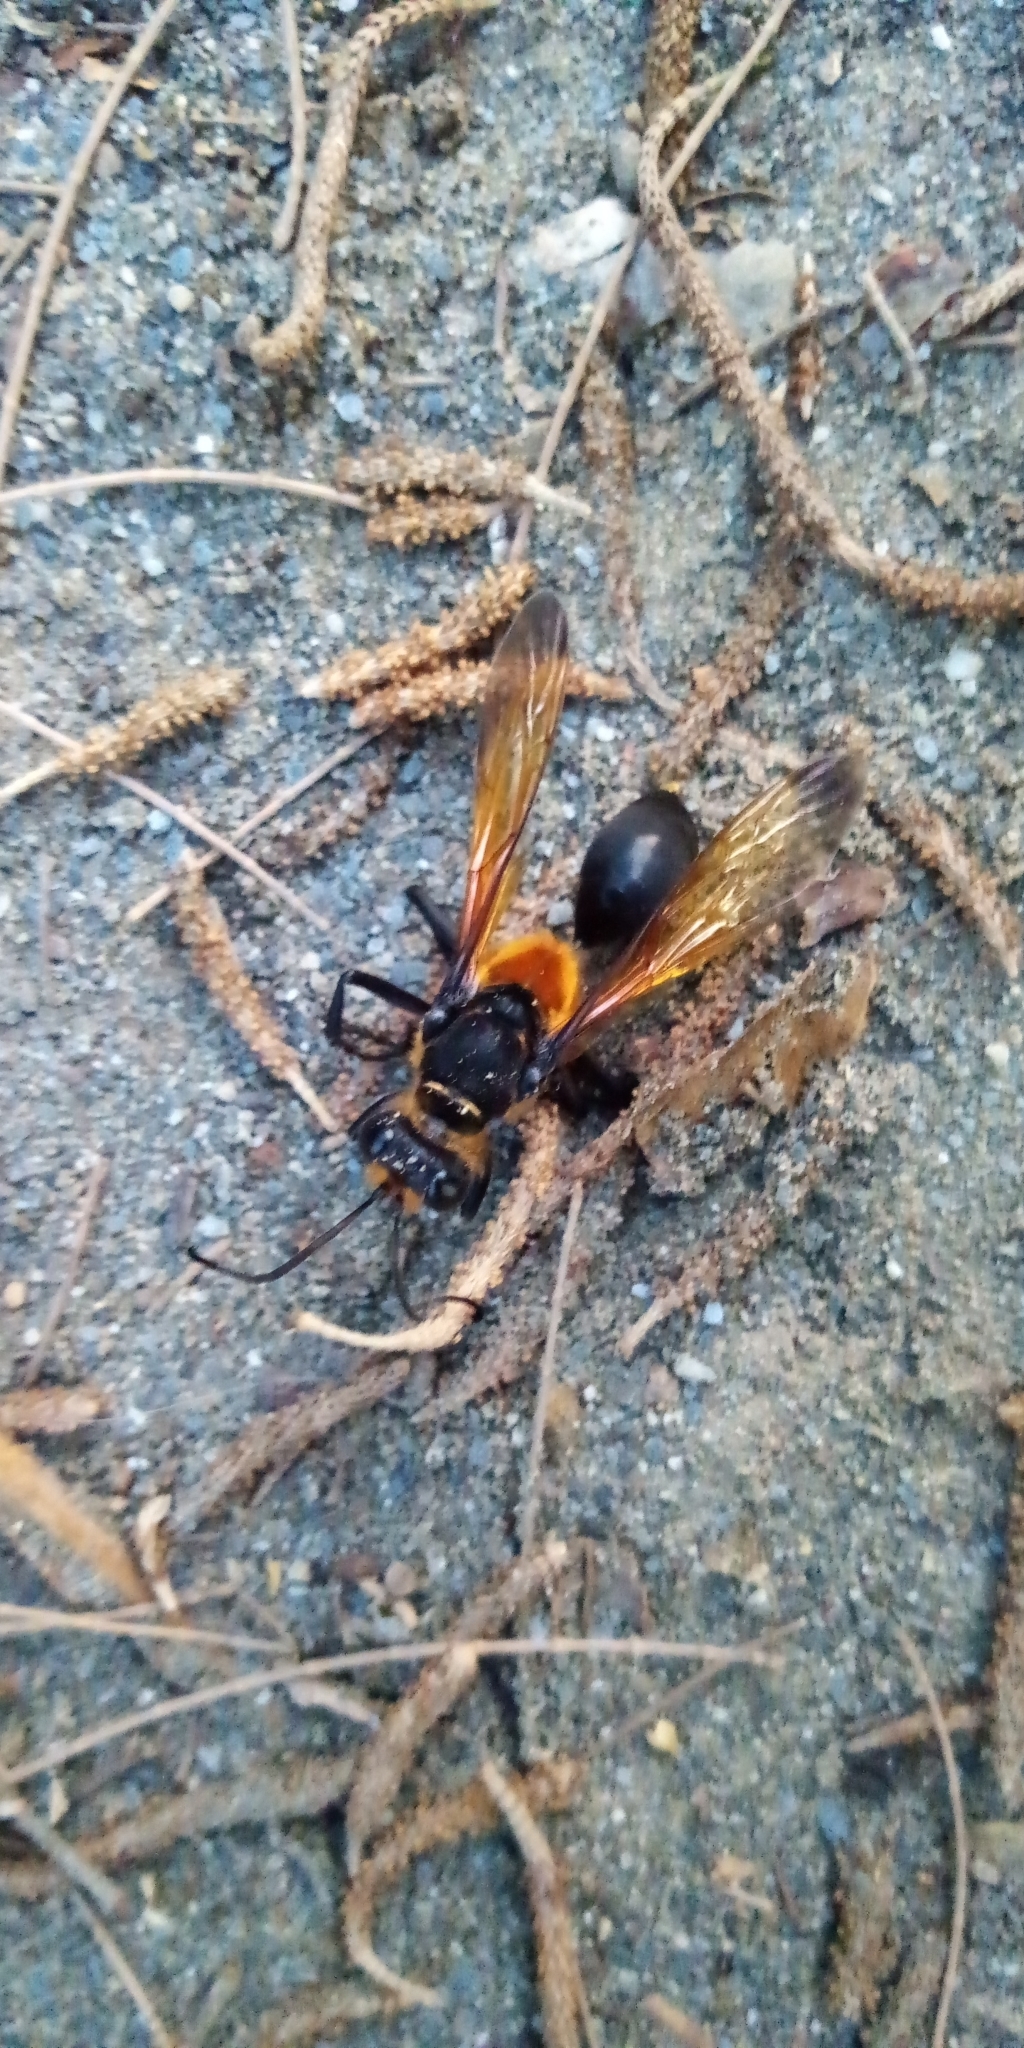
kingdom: Animalia
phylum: Arthropoda
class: Insecta
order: Hymenoptera
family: Sphecidae
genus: Sphex
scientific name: Sphex diabolicus
